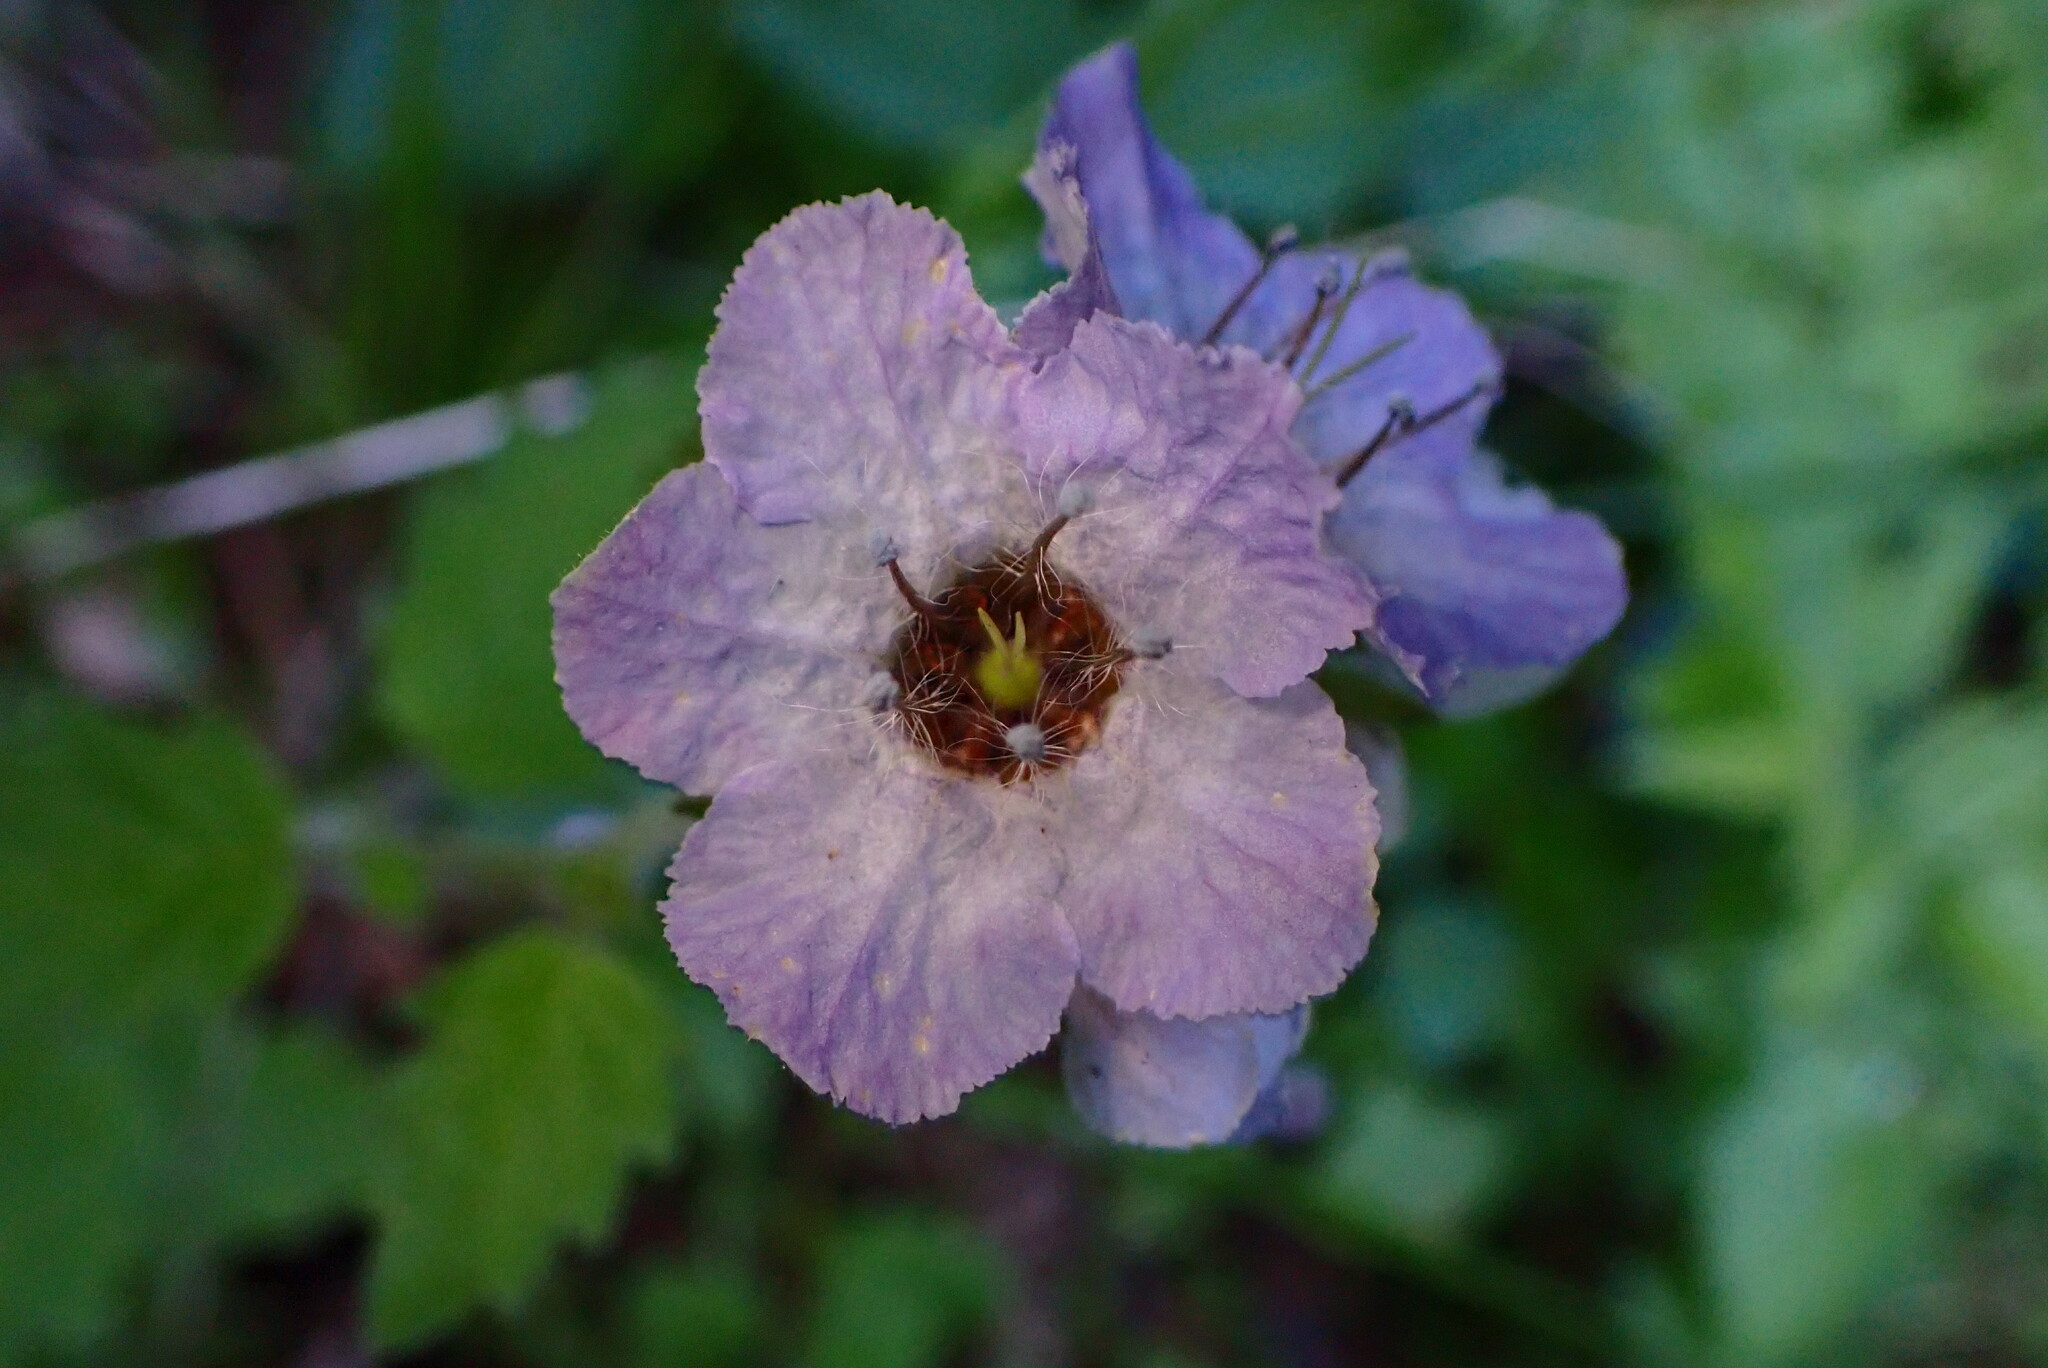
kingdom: Plantae
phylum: Tracheophyta
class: Magnoliopsida
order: Boraginales
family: Hydrophyllaceae
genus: Phacelia
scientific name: Phacelia bolanderi
